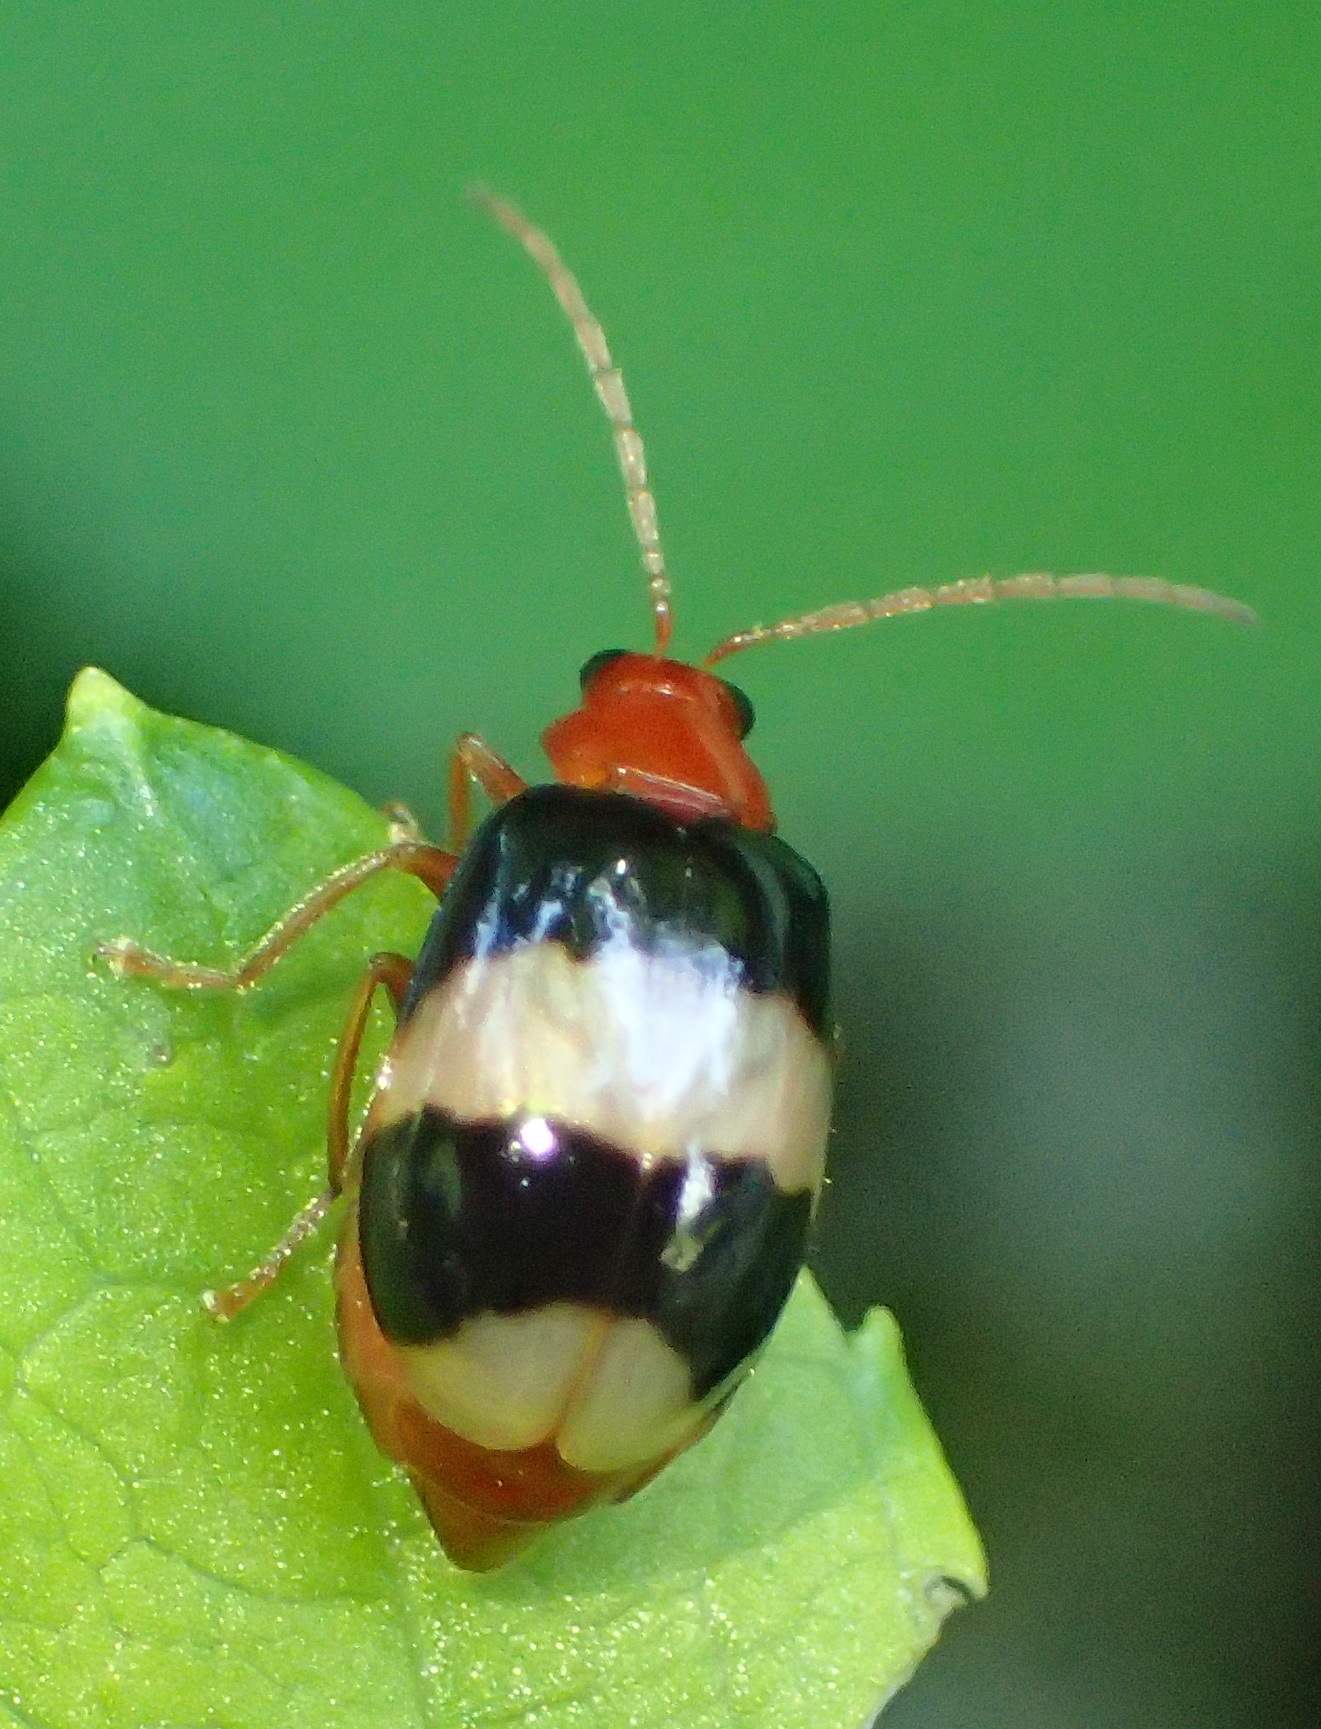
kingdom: Animalia
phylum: Arthropoda
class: Insecta
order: Coleoptera
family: Chrysomelidae
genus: Monolepta
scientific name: Monolepta
